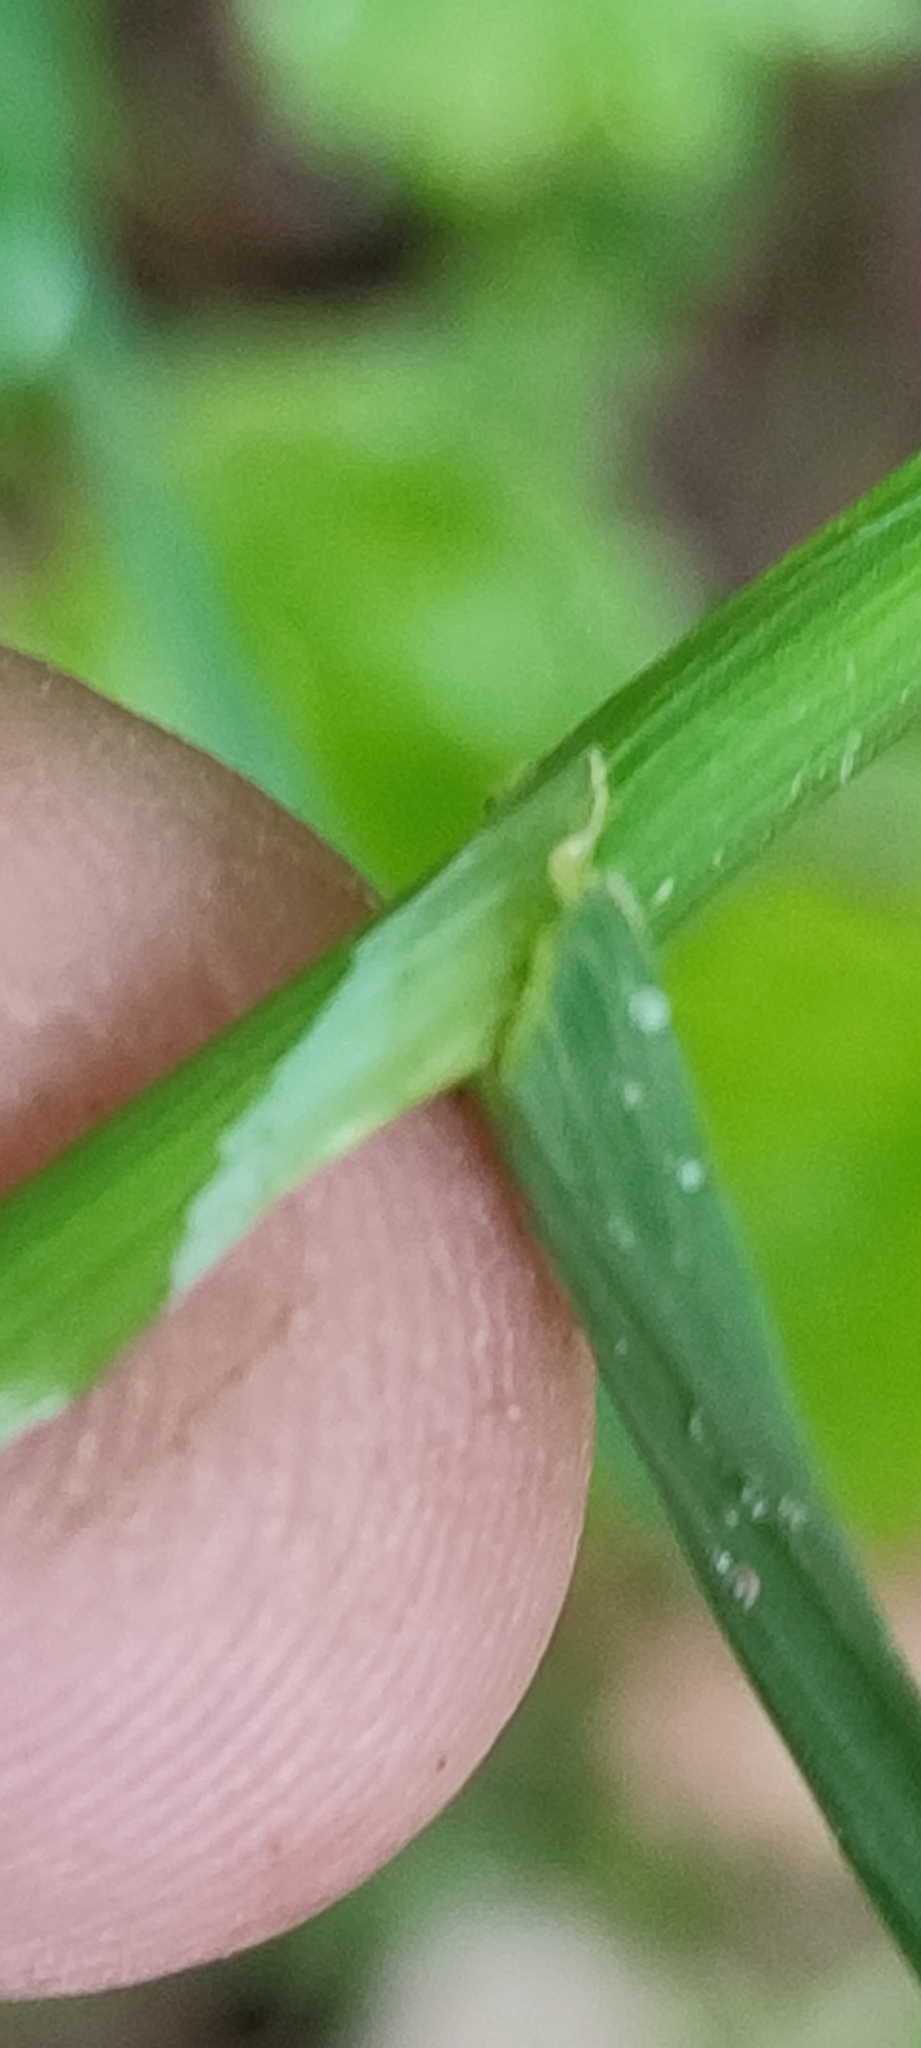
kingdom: Plantae
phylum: Tracheophyta
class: Liliopsida
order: Poales
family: Poaceae
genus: Poa
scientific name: Poa trivialis
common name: Rough bluegrass
